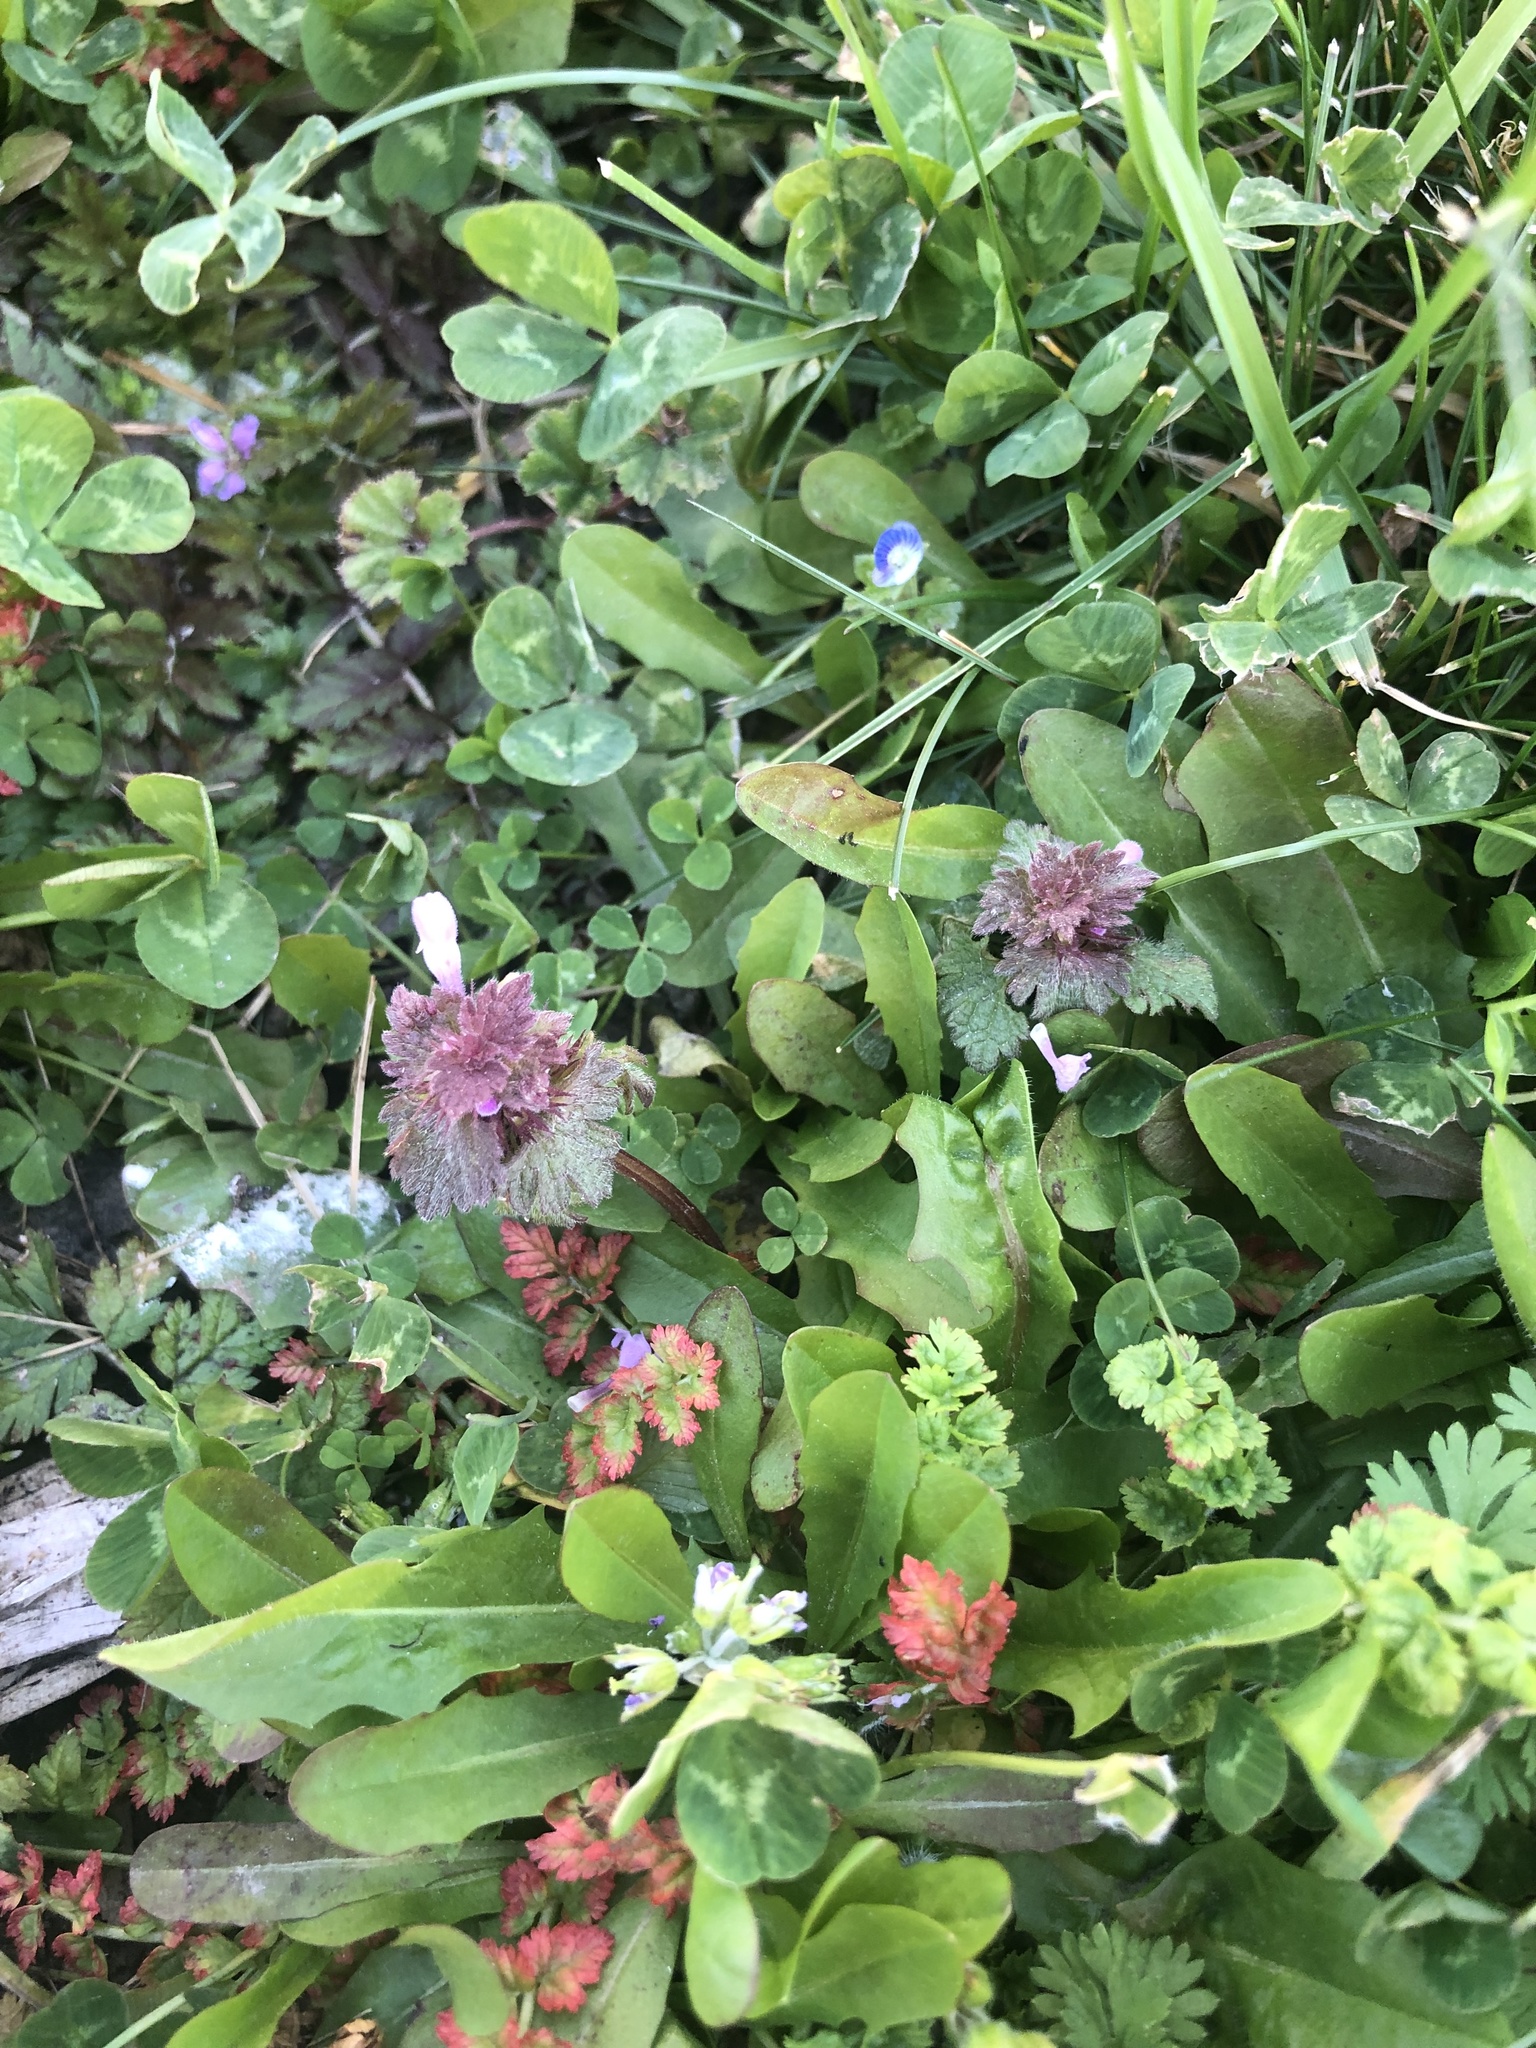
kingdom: Plantae
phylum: Tracheophyta
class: Magnoliopsida
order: Lamiales
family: Lamiaceae
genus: Lamium
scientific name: Lamium hybridum
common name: Cut-leaved dead-nettle
